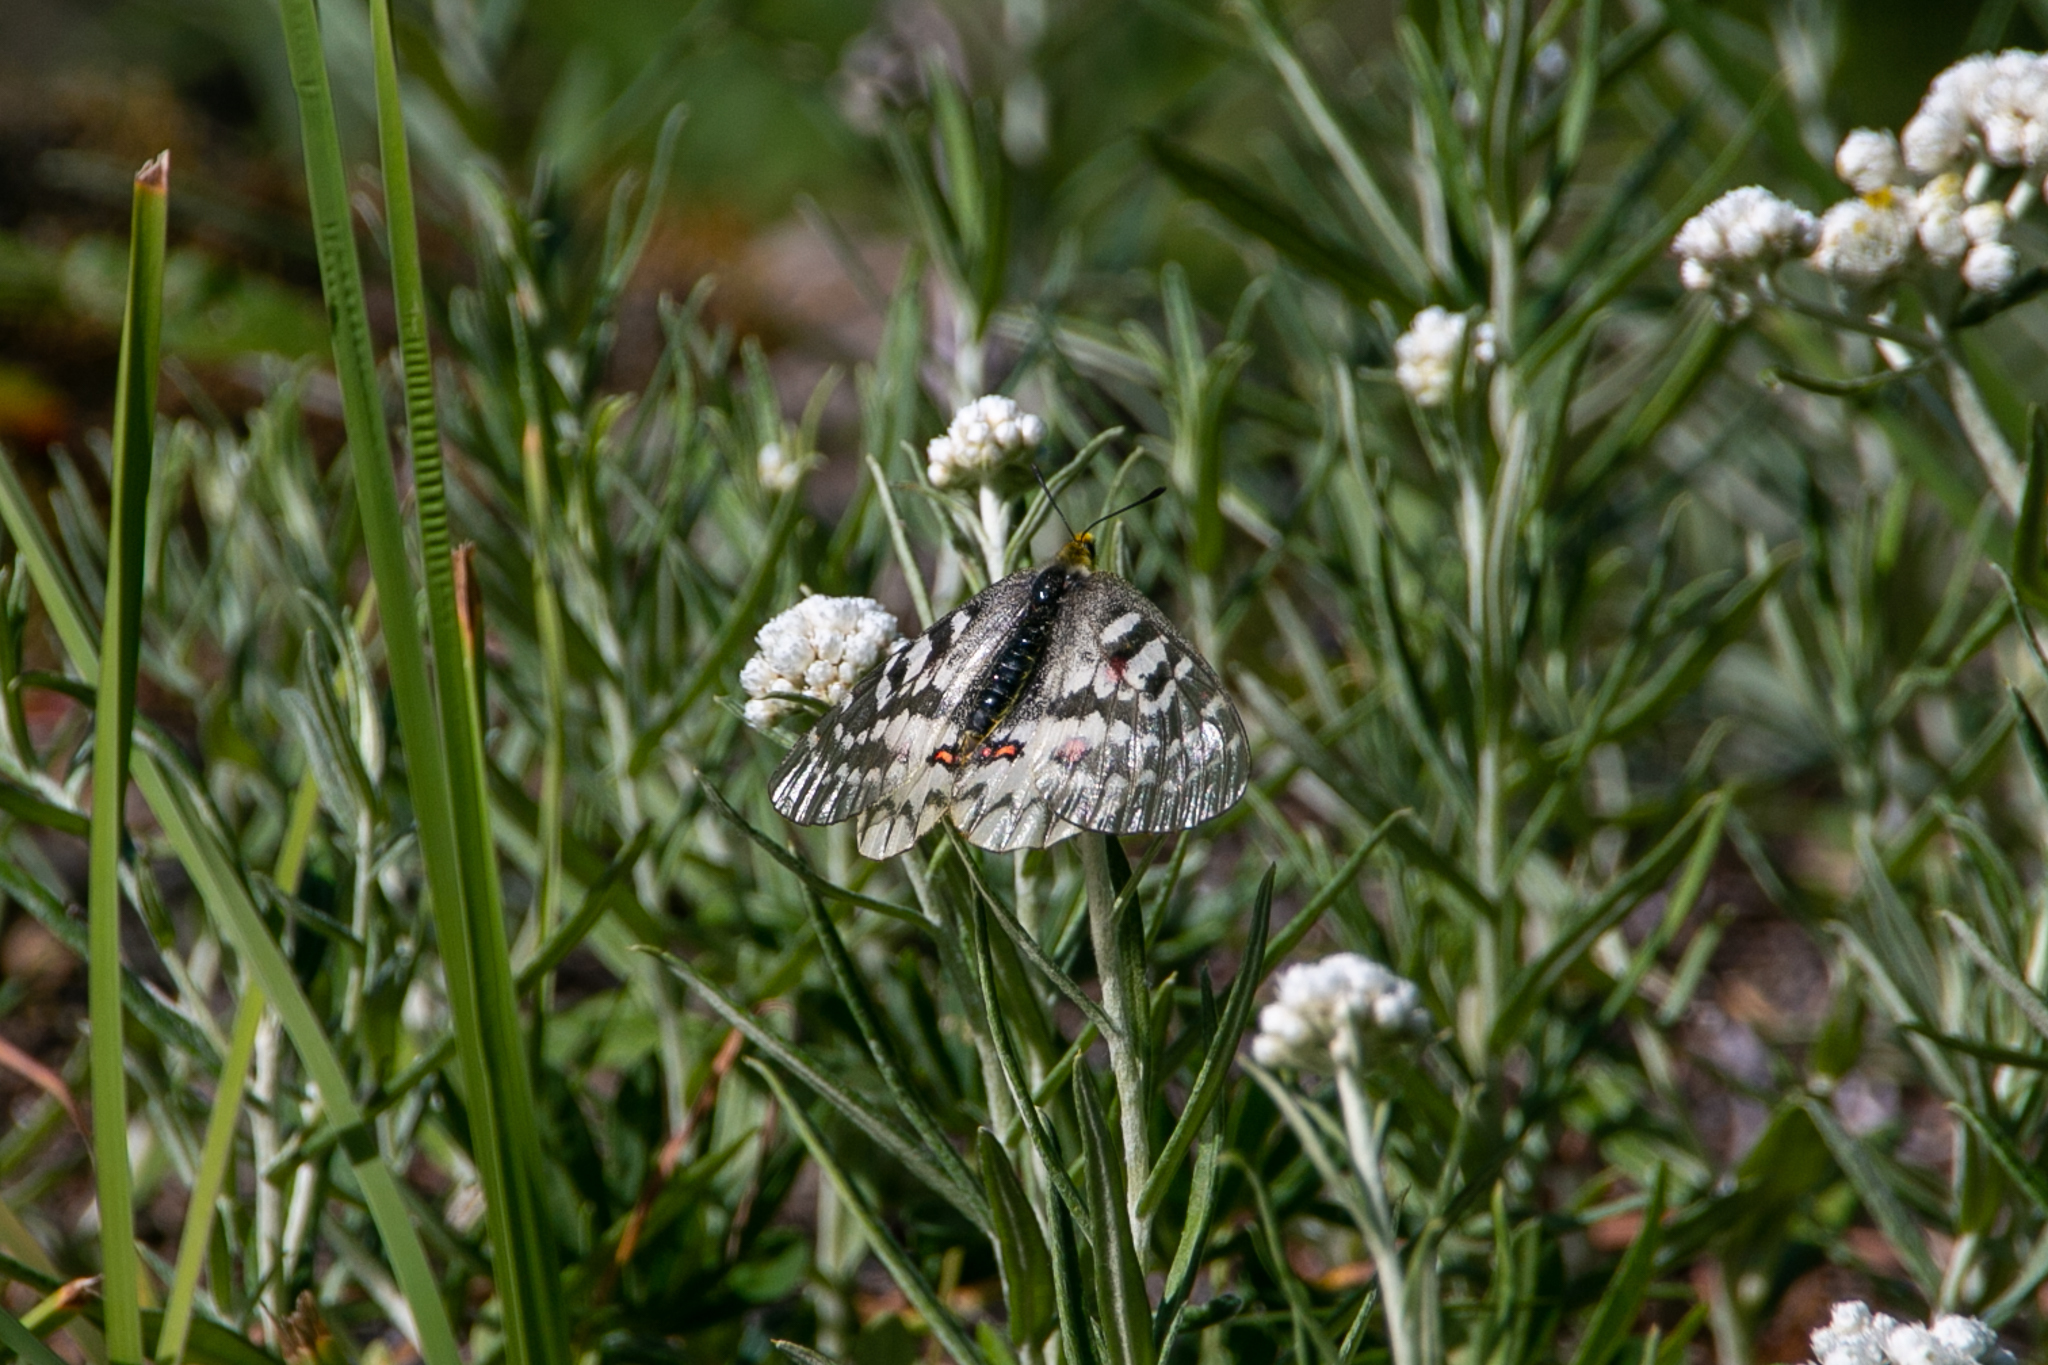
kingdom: Animalia
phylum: Arthropoda
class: Insecta
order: Lepidoptera
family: Papilionidae
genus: Parnassius
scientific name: Parnassius clodius
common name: American apollo
